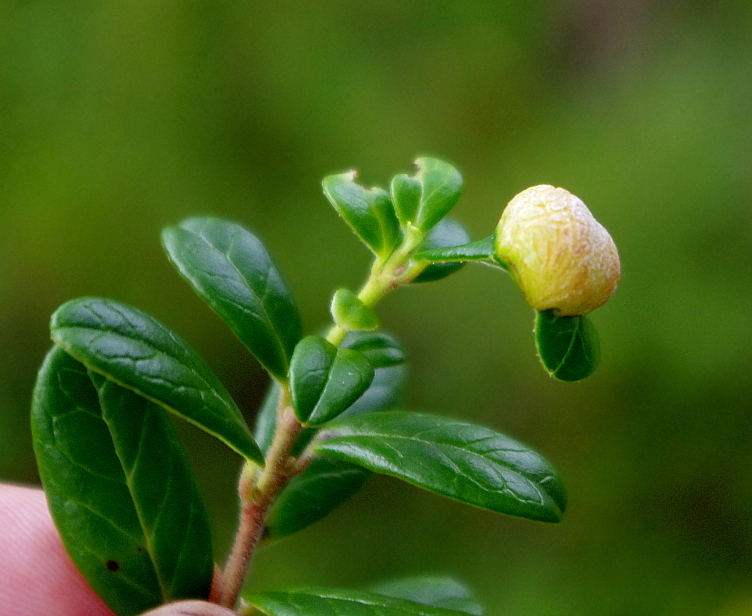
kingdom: Plantae
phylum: Tracheophyta
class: Magnoliopsida
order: Ericales
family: Ericaceae
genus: Vaccinium
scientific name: Vaccinium vitis-idaea
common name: Cowberry
